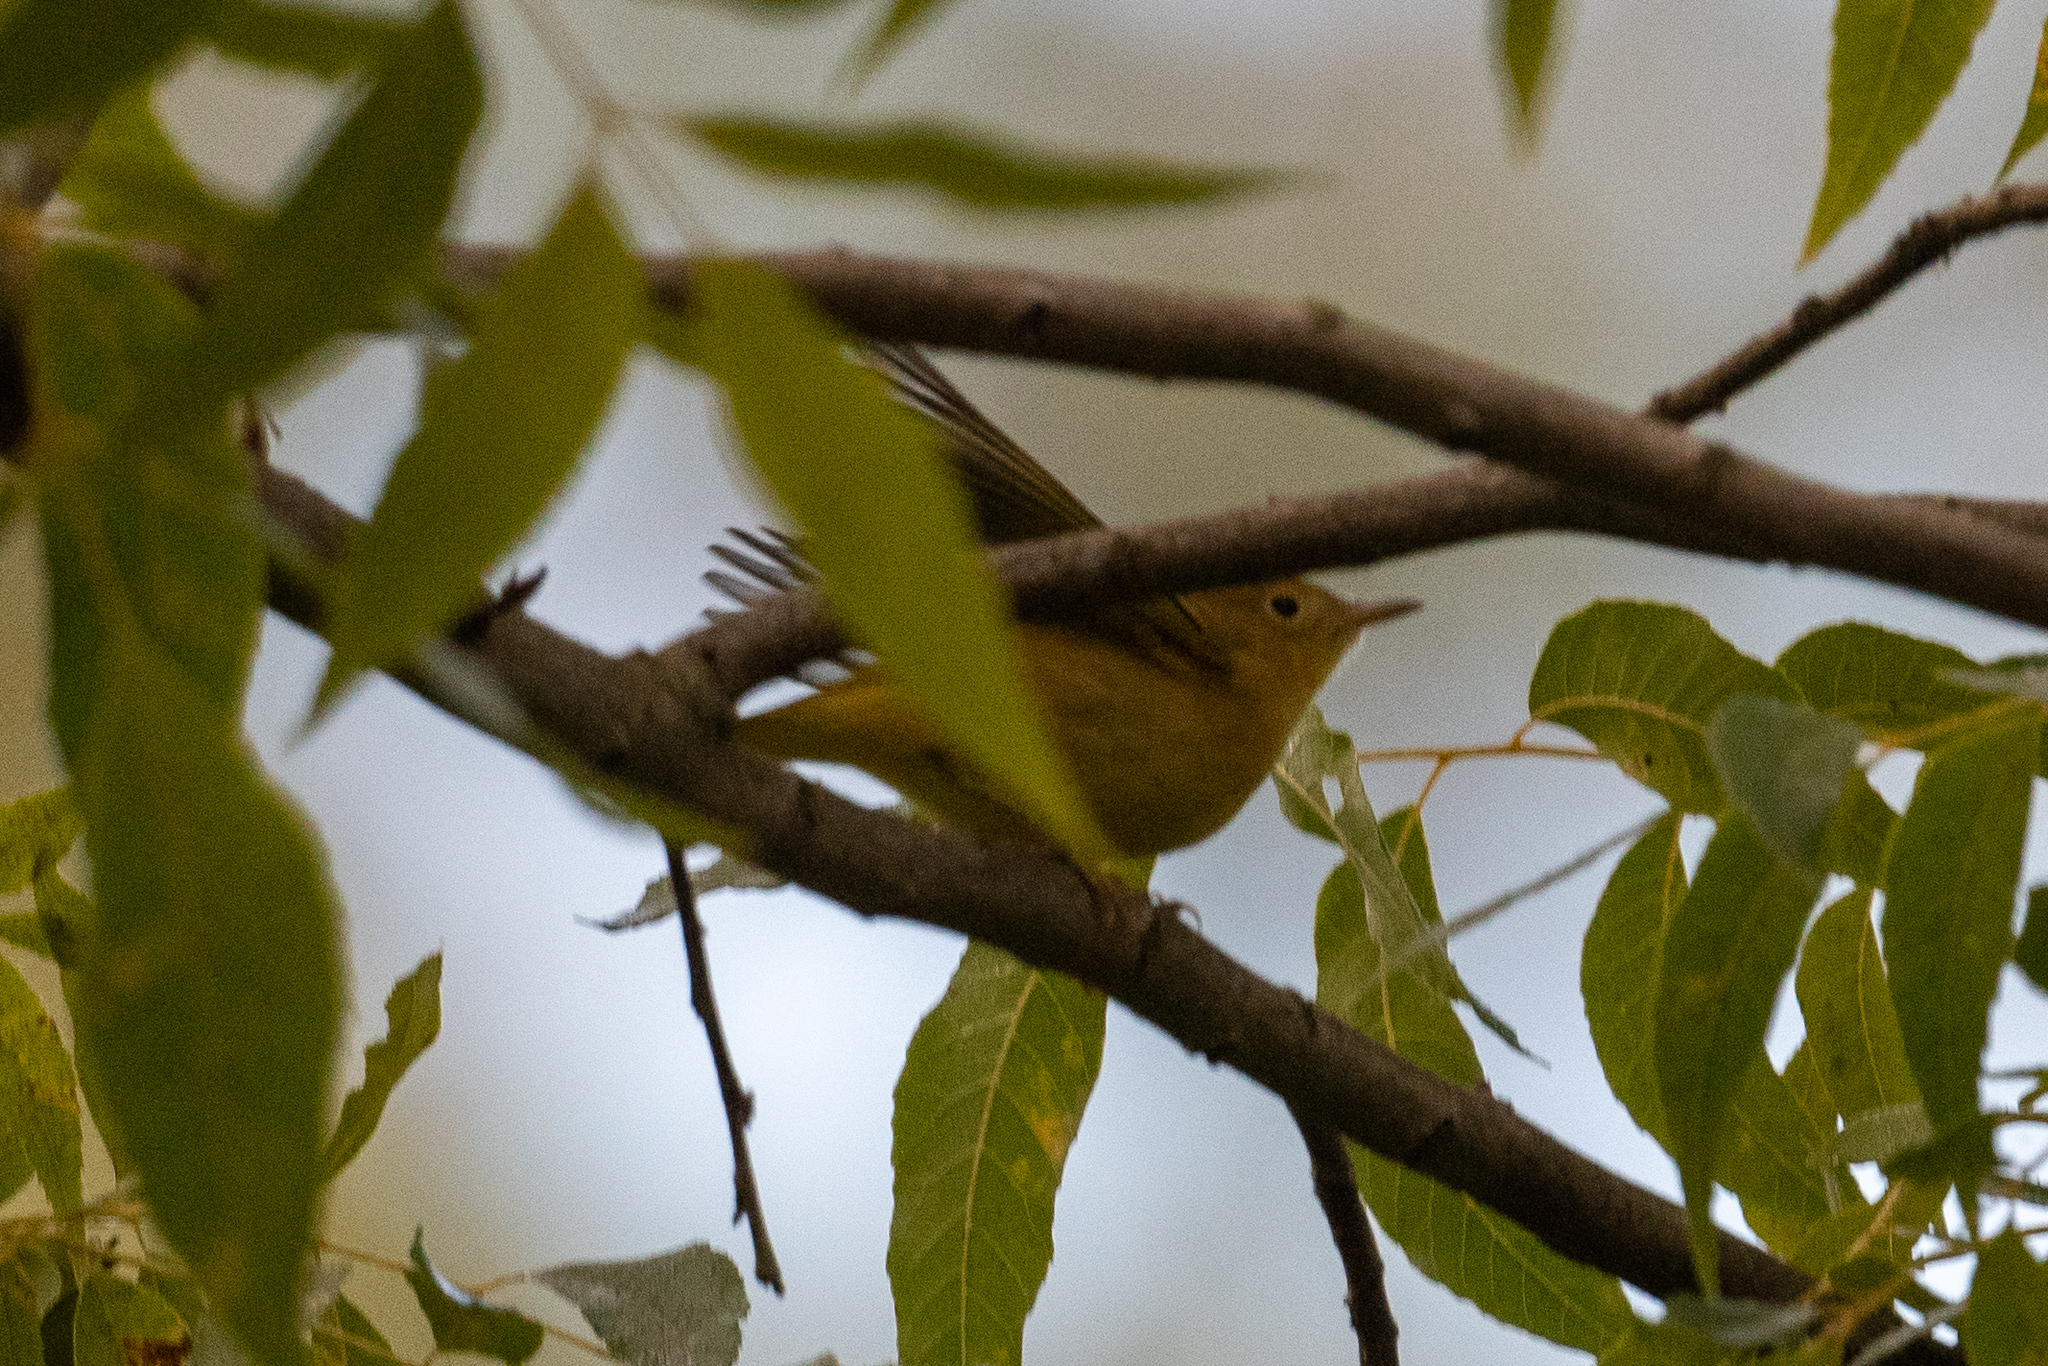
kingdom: Animalia
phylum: Chordata
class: Aves
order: Passeriformes
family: Parulidae
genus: Setophaga
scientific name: Setophaga petechia
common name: Yellow warbler
